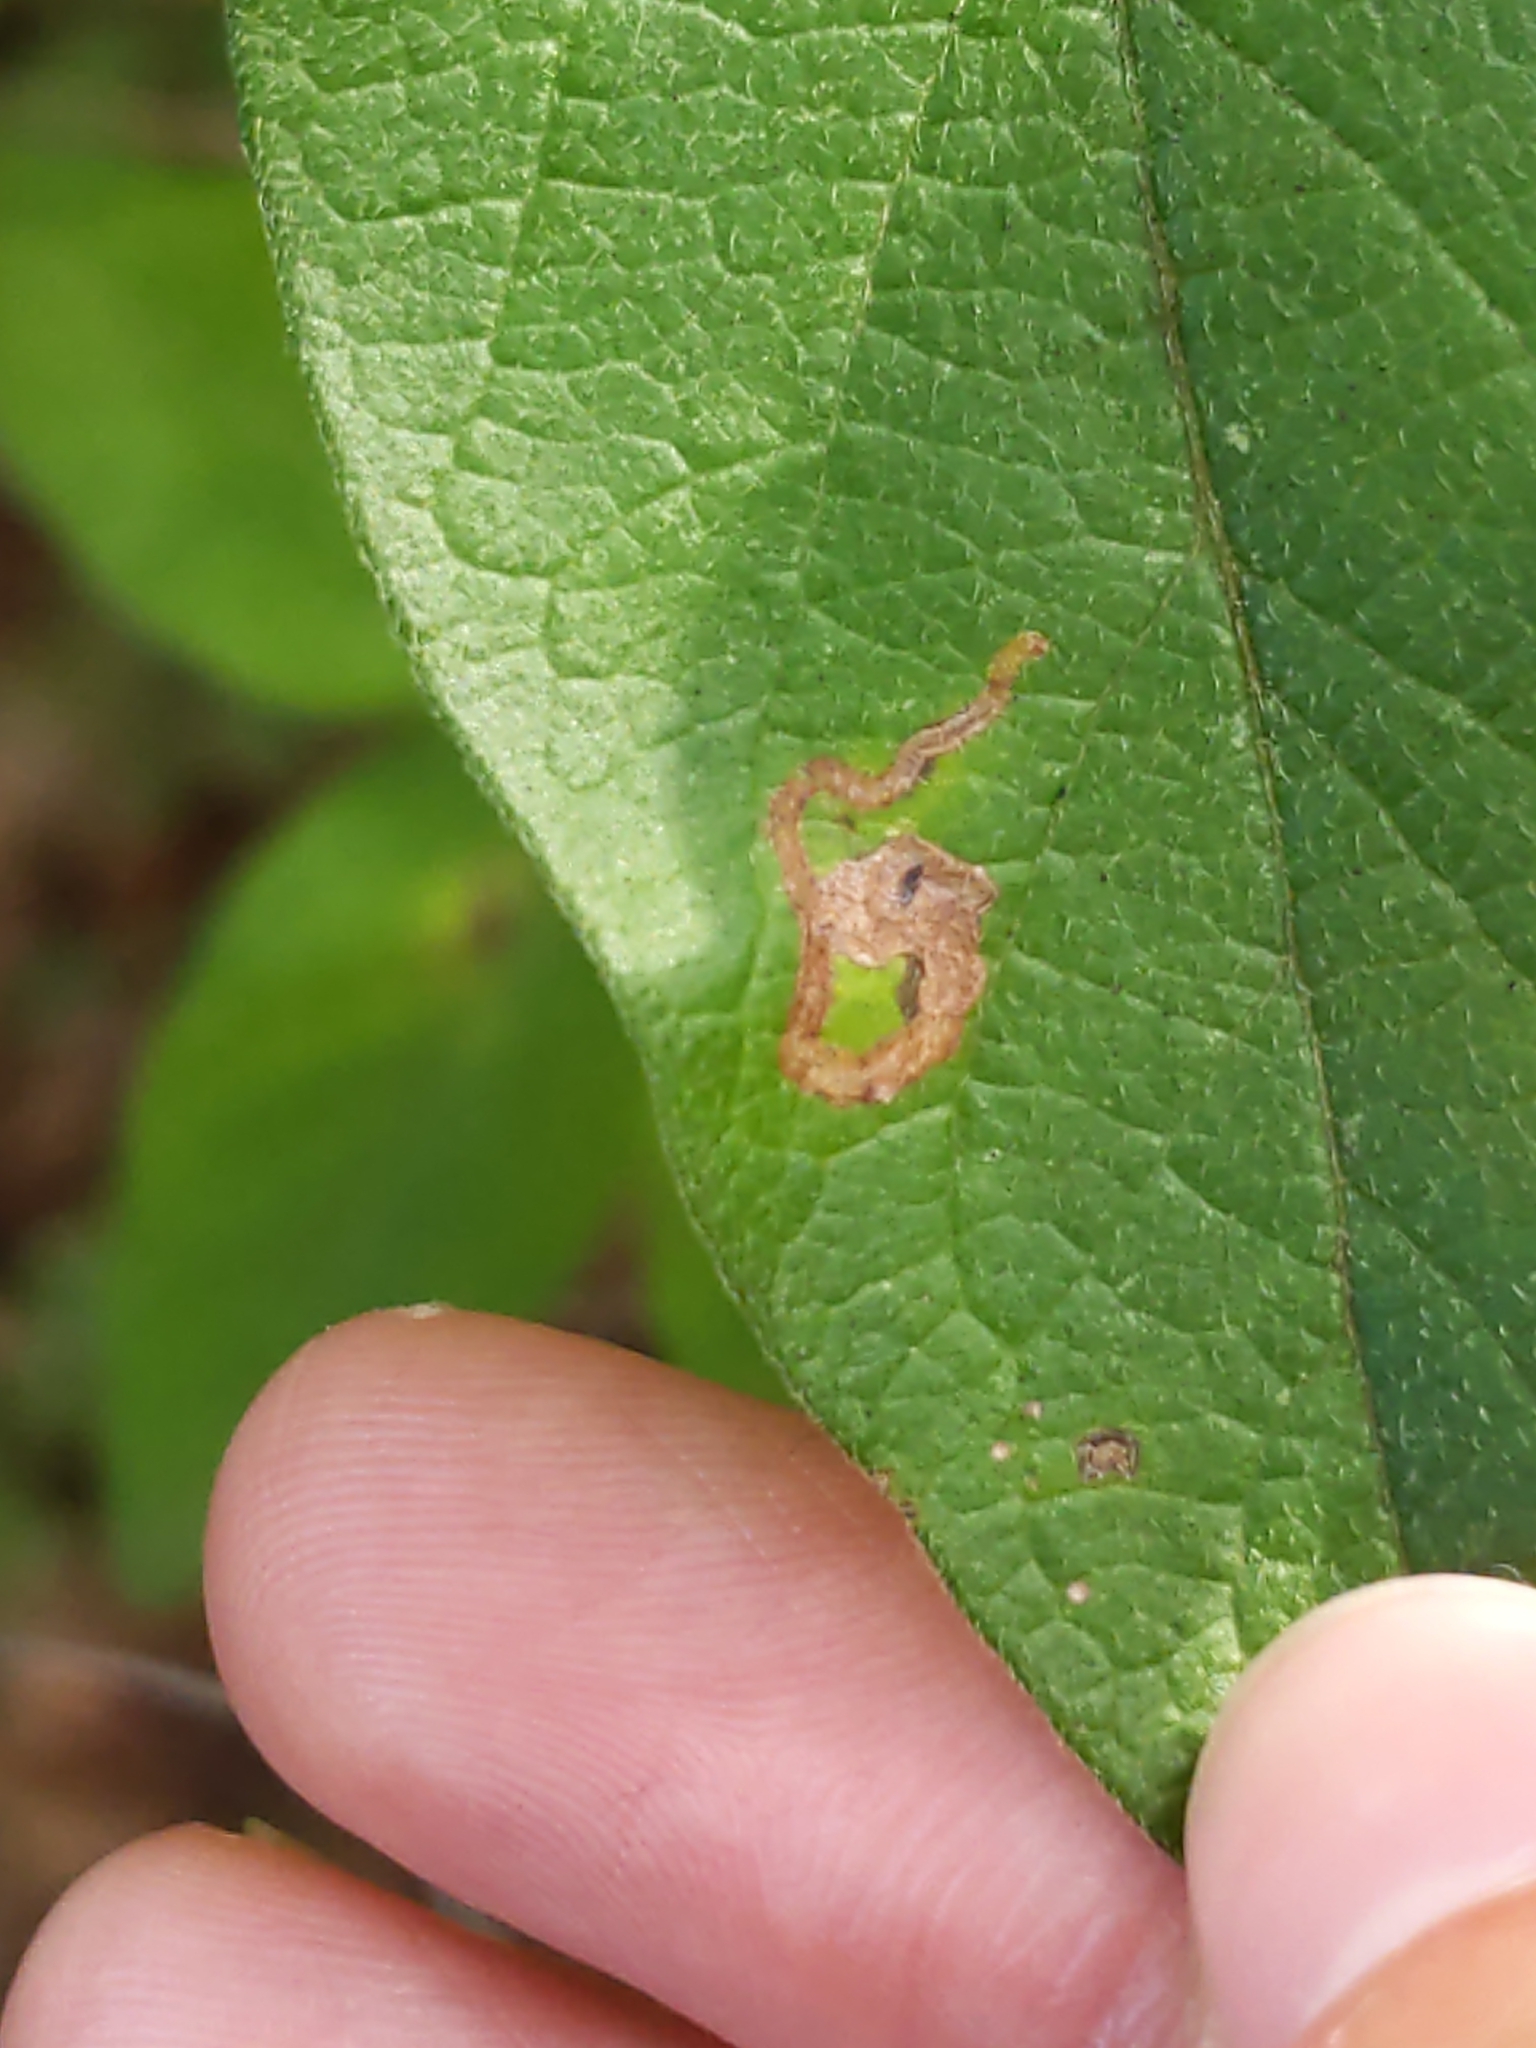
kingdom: Animalia
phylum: Arthropoda
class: Insecta
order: Diptera
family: Agromyzidae
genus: Aulagromyza
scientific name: Aulagromyza
